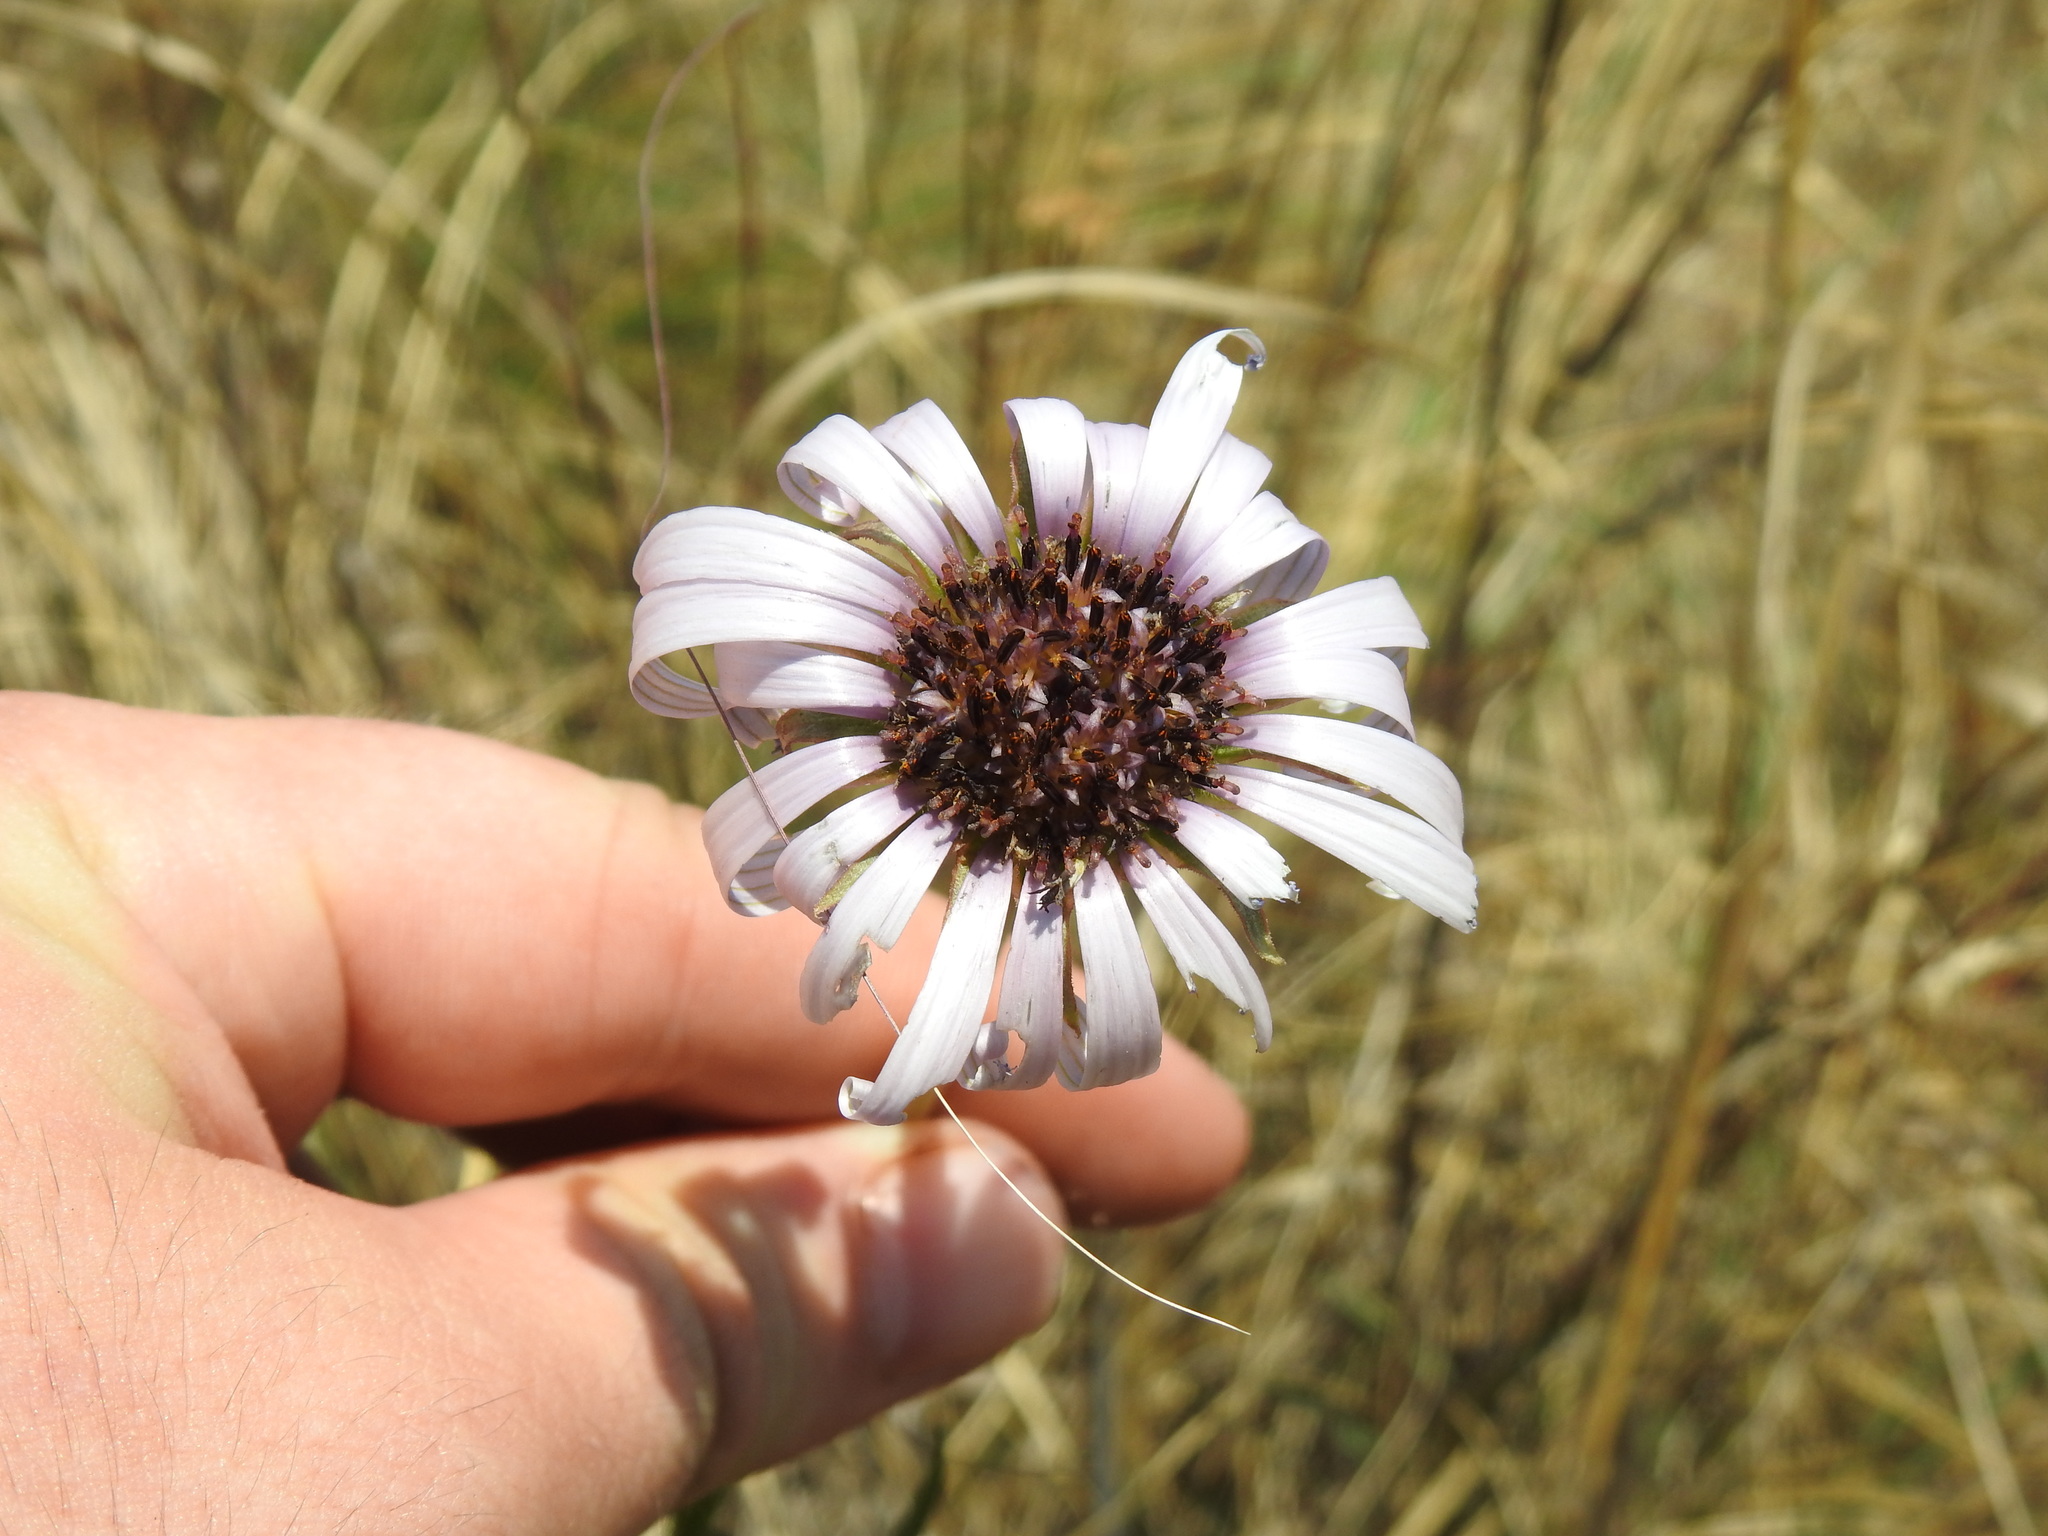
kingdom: Plantae
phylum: Tracheophyta
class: Magnoliopsida
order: Asterales
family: Asteraceae
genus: Dimorphotheca
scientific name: Dimorphotheca spectabilis
